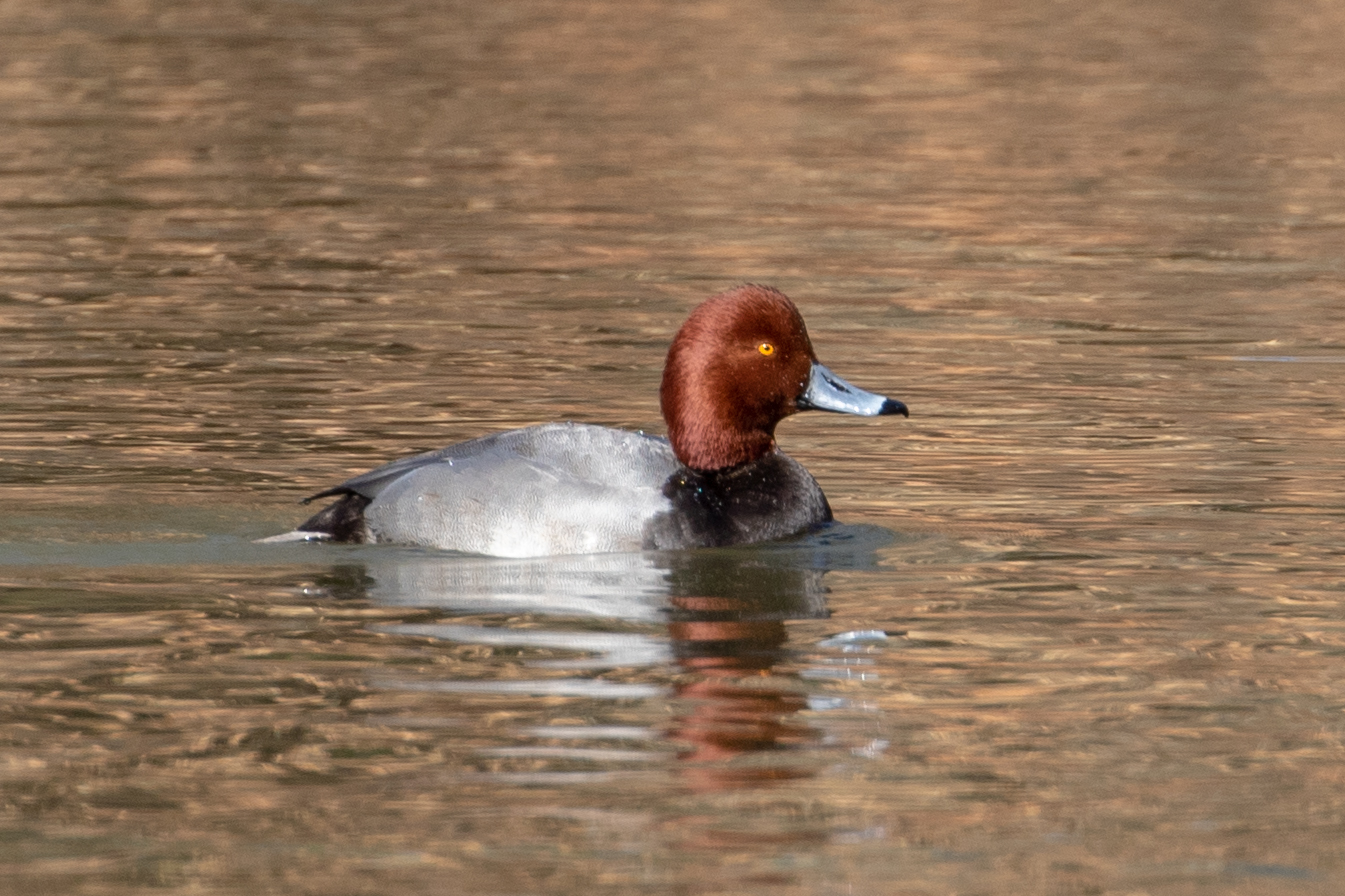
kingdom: Animalia
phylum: Chordata
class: Aves
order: Anseriformes
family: Anatidae
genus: Aythya
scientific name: Aythya americana
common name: Redhead
